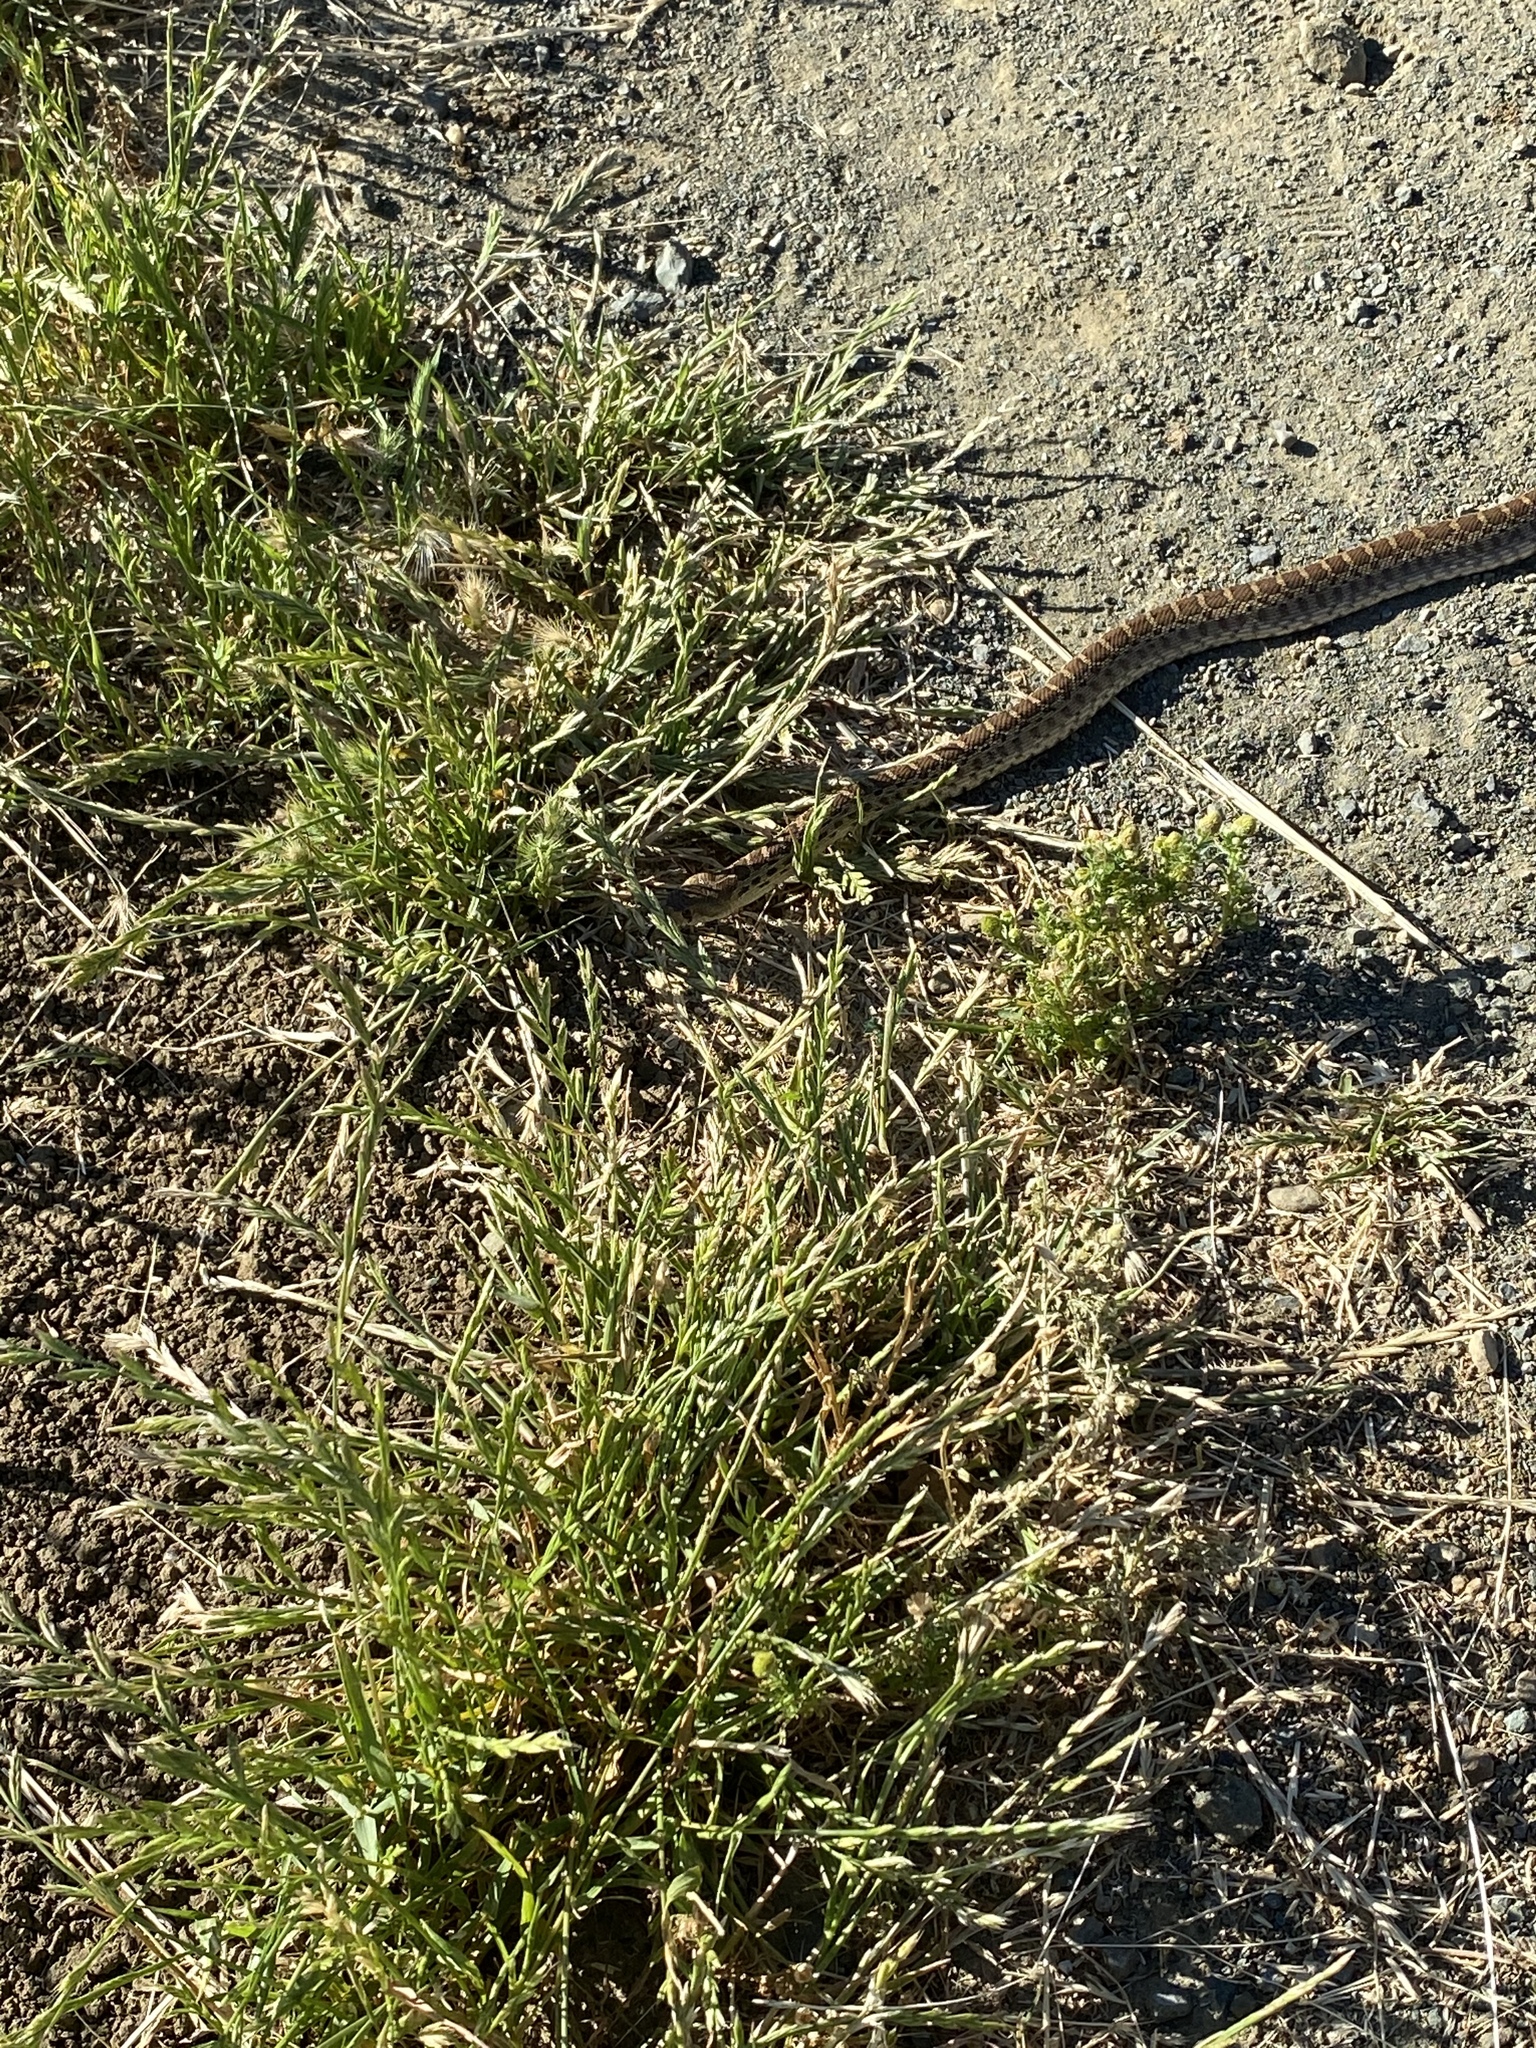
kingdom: Animalia
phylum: Chordata
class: Squamata
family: Colubridae
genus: Pituophis
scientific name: Pituophis catenifer
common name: Gopher snake
